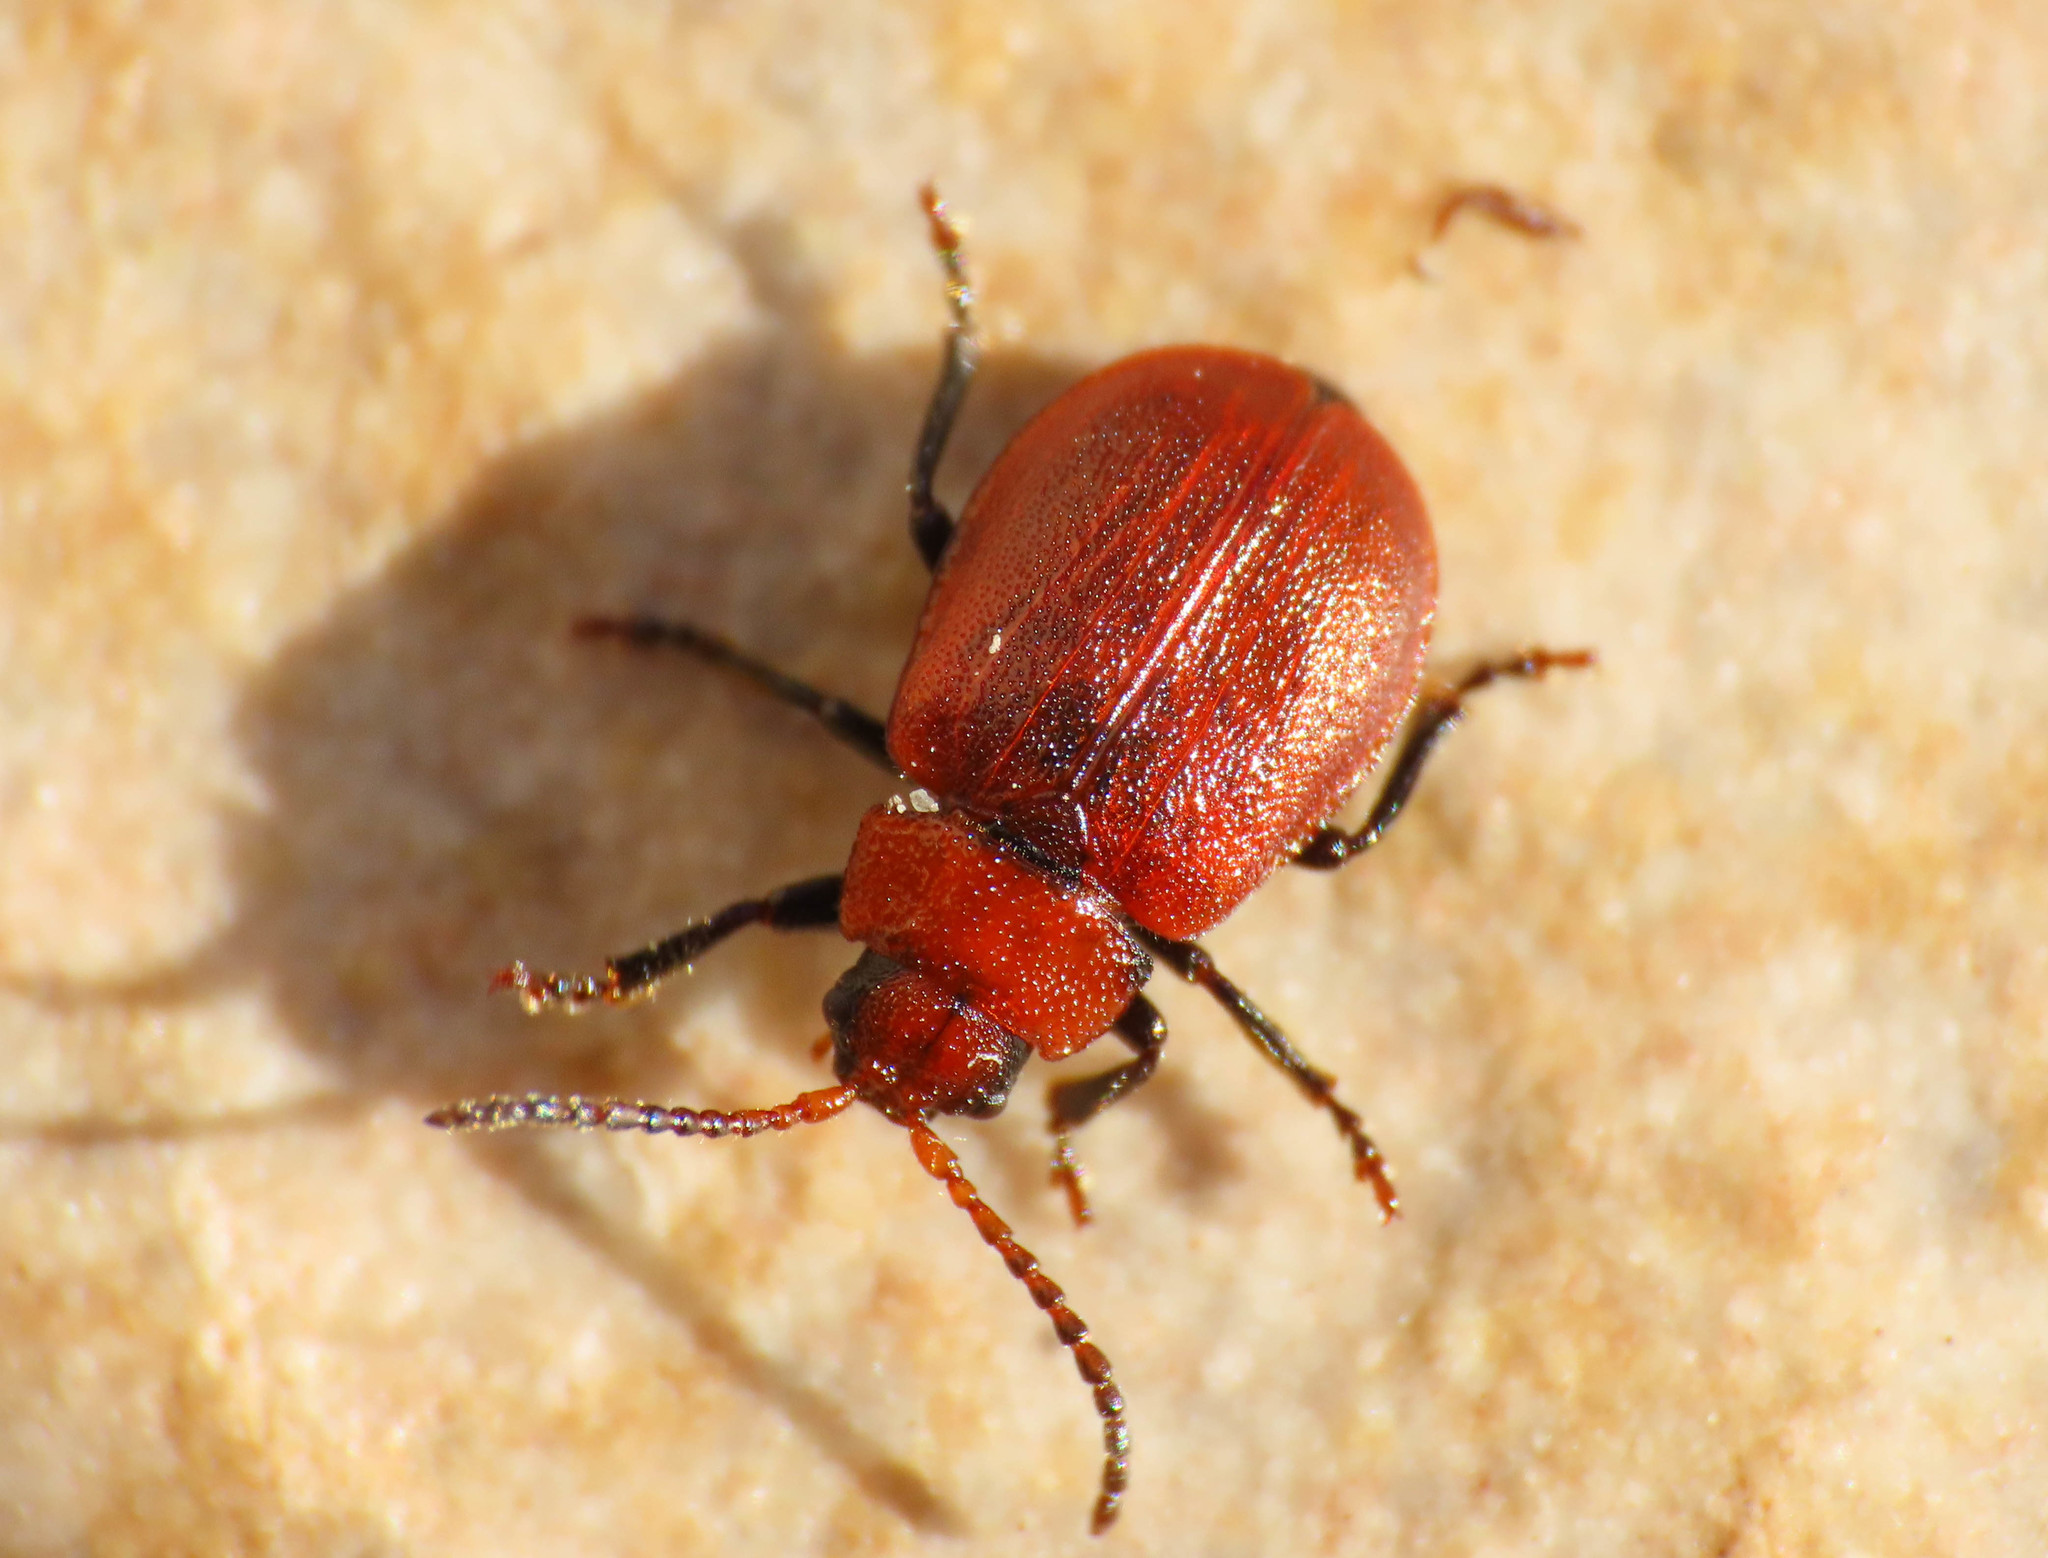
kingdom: Animalia
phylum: Arthropoda
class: Insecta
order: Coleoptera
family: Chrysomelidae
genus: Emarhopa
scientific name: Emarhopa rufa
